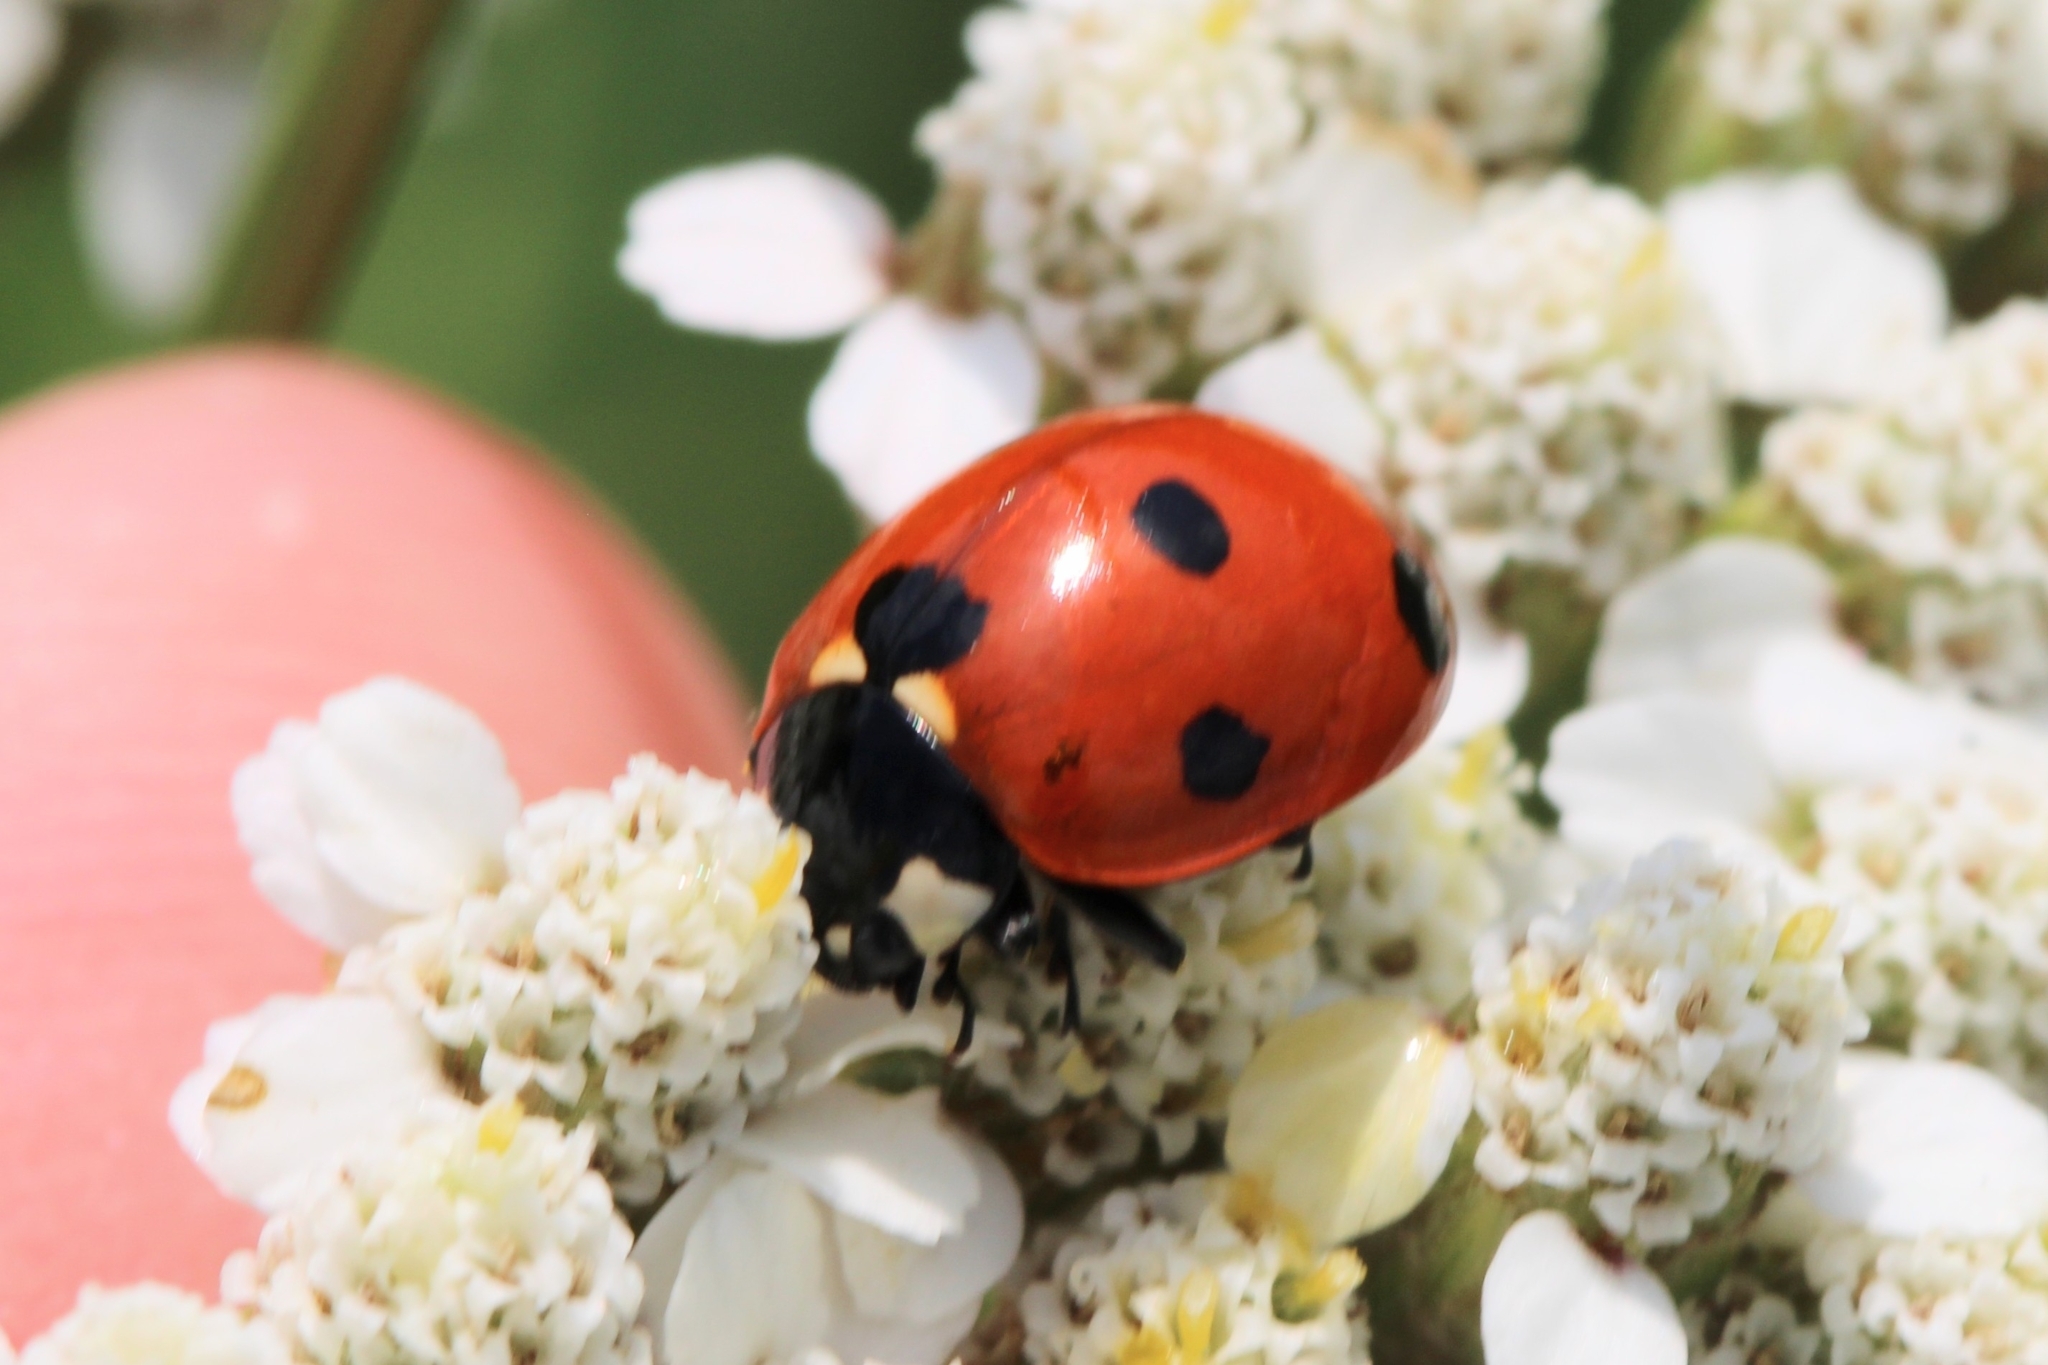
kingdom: Animalia
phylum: Arthropoda
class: Insecta
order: Coleoptera
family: Coccinellidae
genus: Coccinella
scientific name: Coccinella septempunctata
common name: Sevenspotted lady beetle
